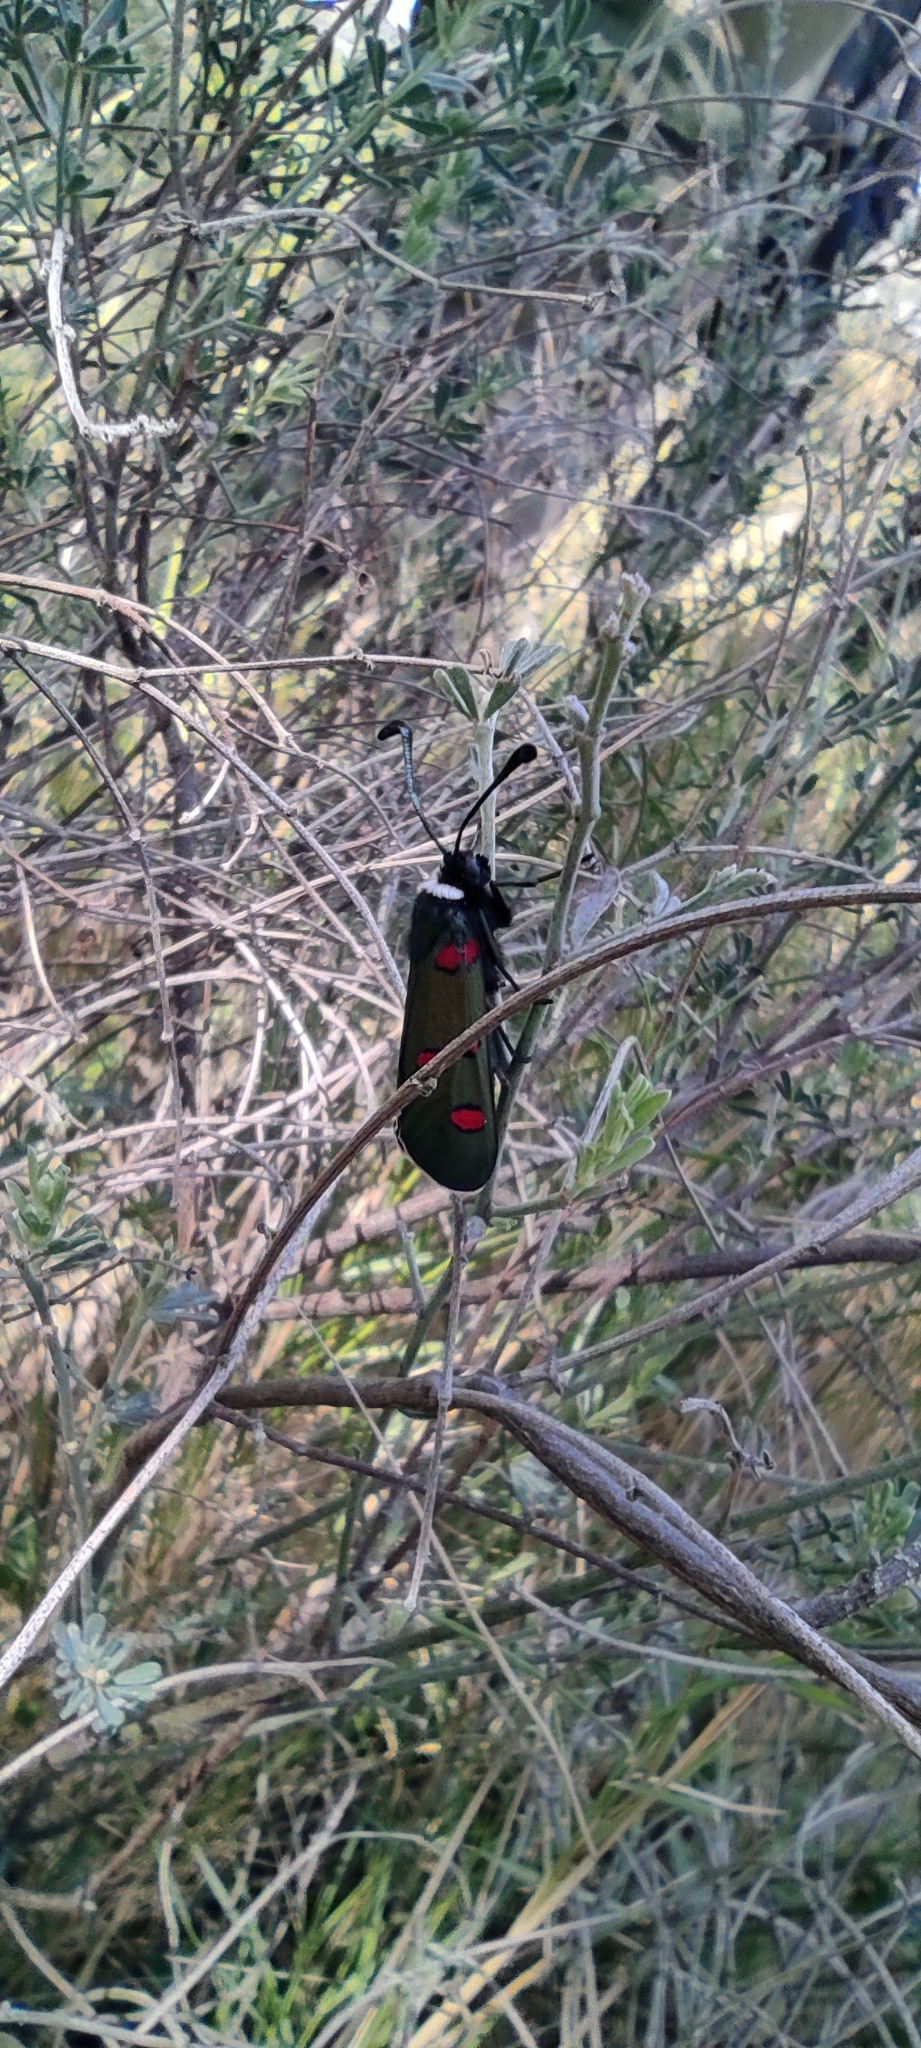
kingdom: Animalia
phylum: Arthropoda
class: Insecta
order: Lepidoptera
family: Zygaenidae
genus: Zygaena
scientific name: Zygaena lavandulae
